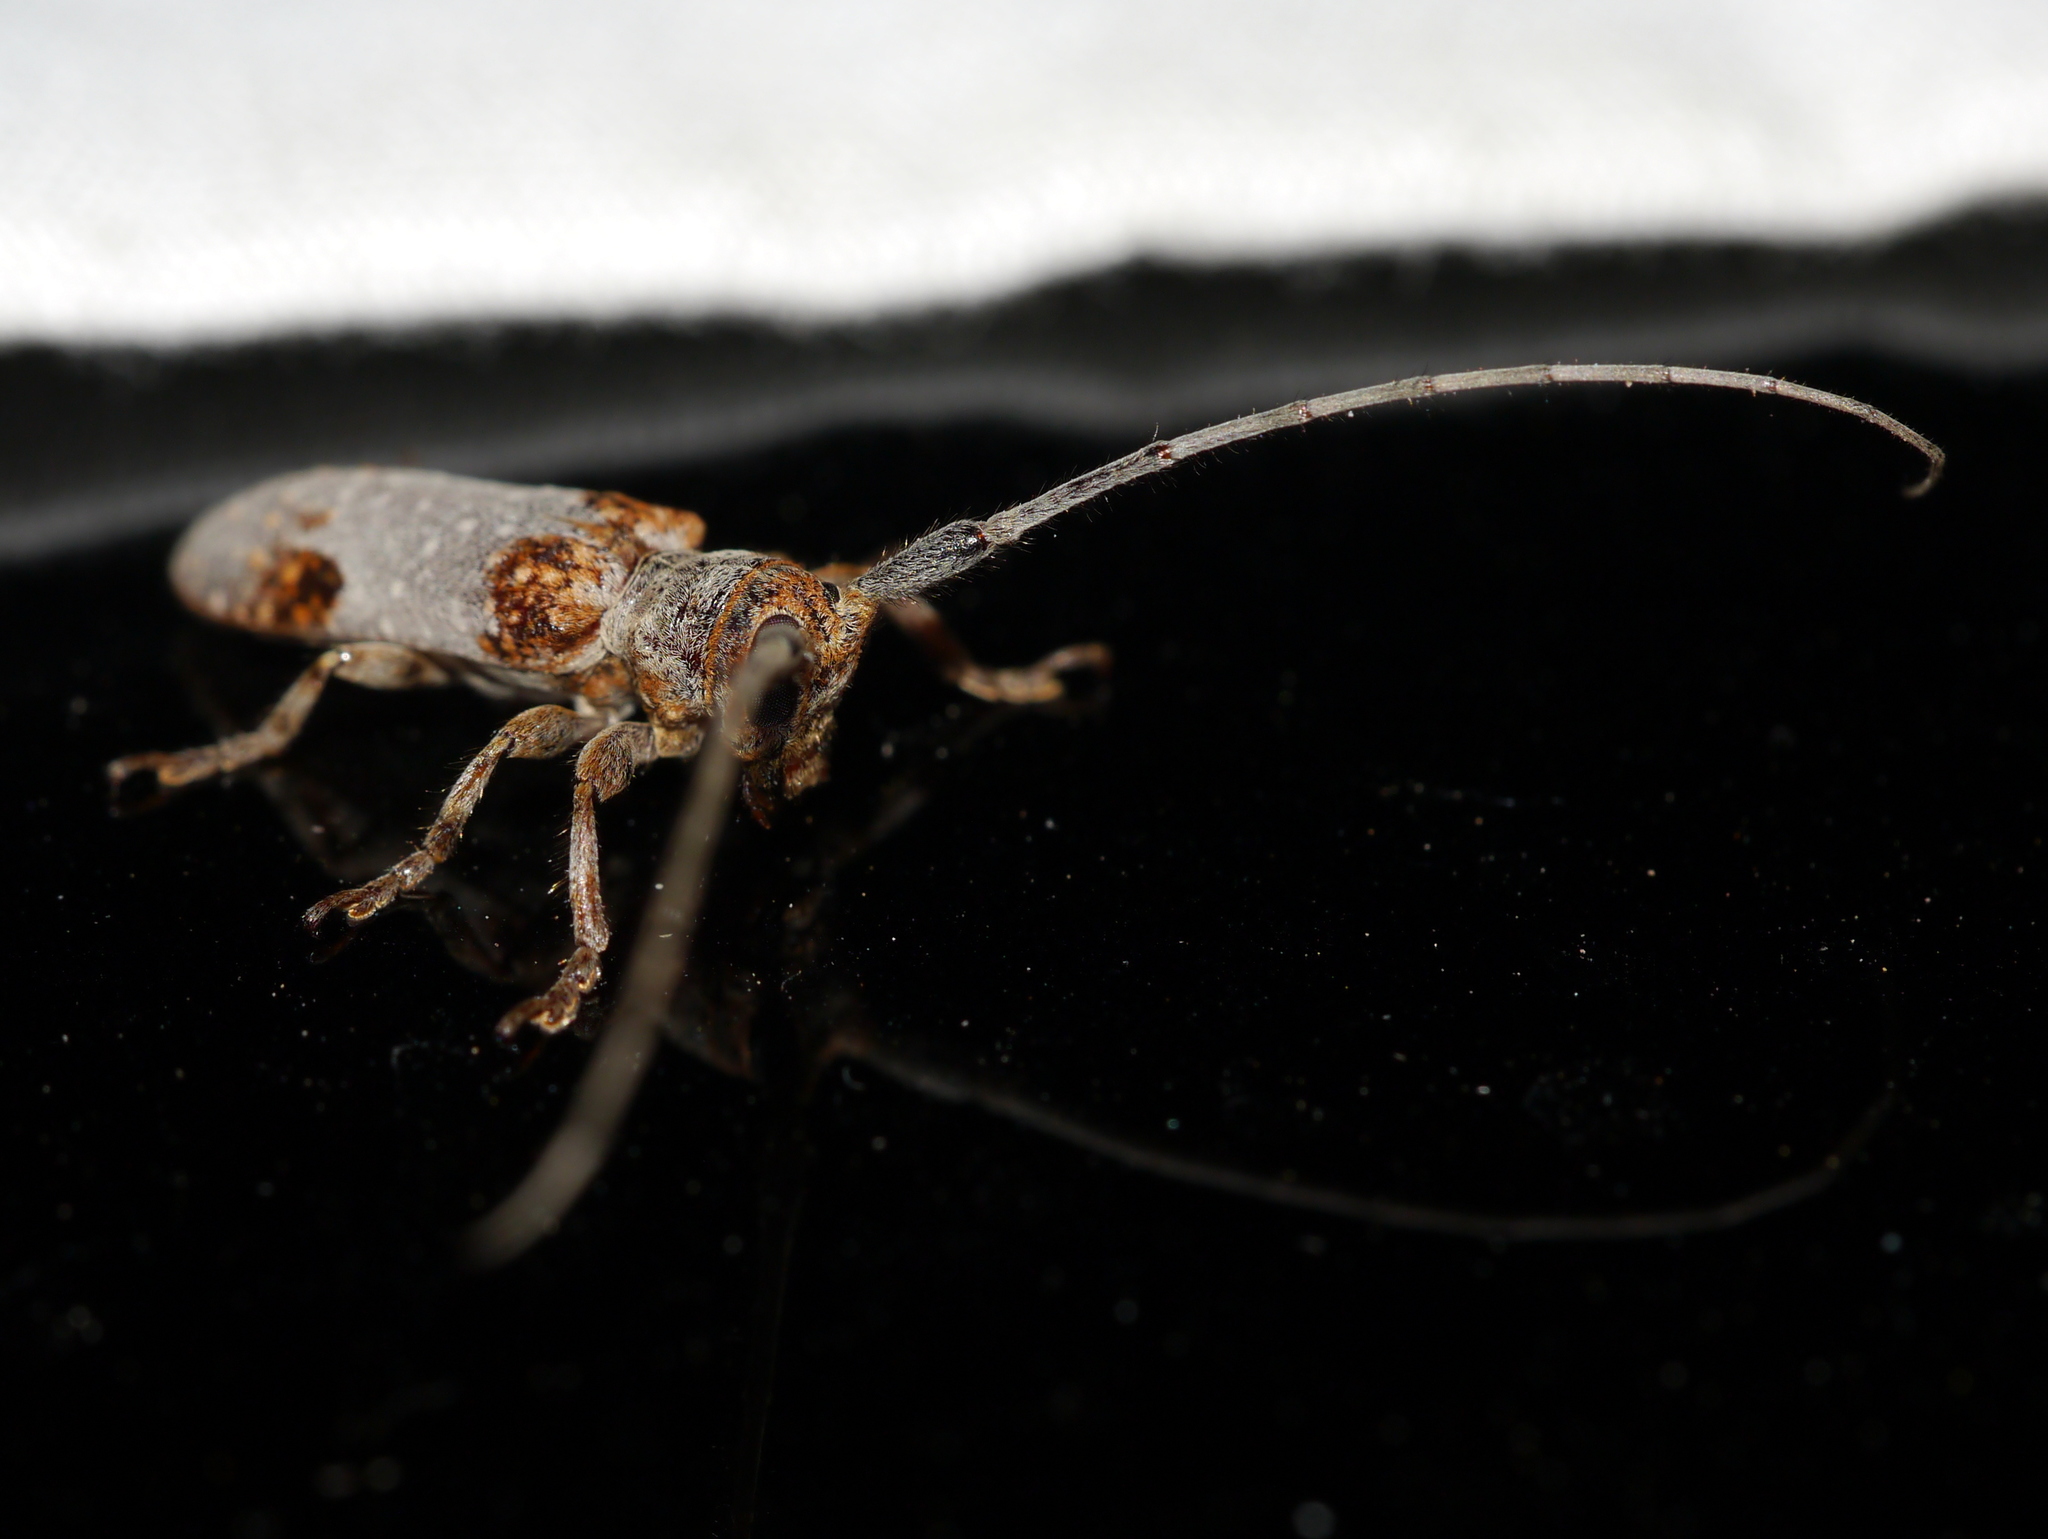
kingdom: Animalia
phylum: Arthropoda
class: Insecta
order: Coleoptera
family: Cerambycidae
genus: Oncideres
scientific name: Oncideres quercus
